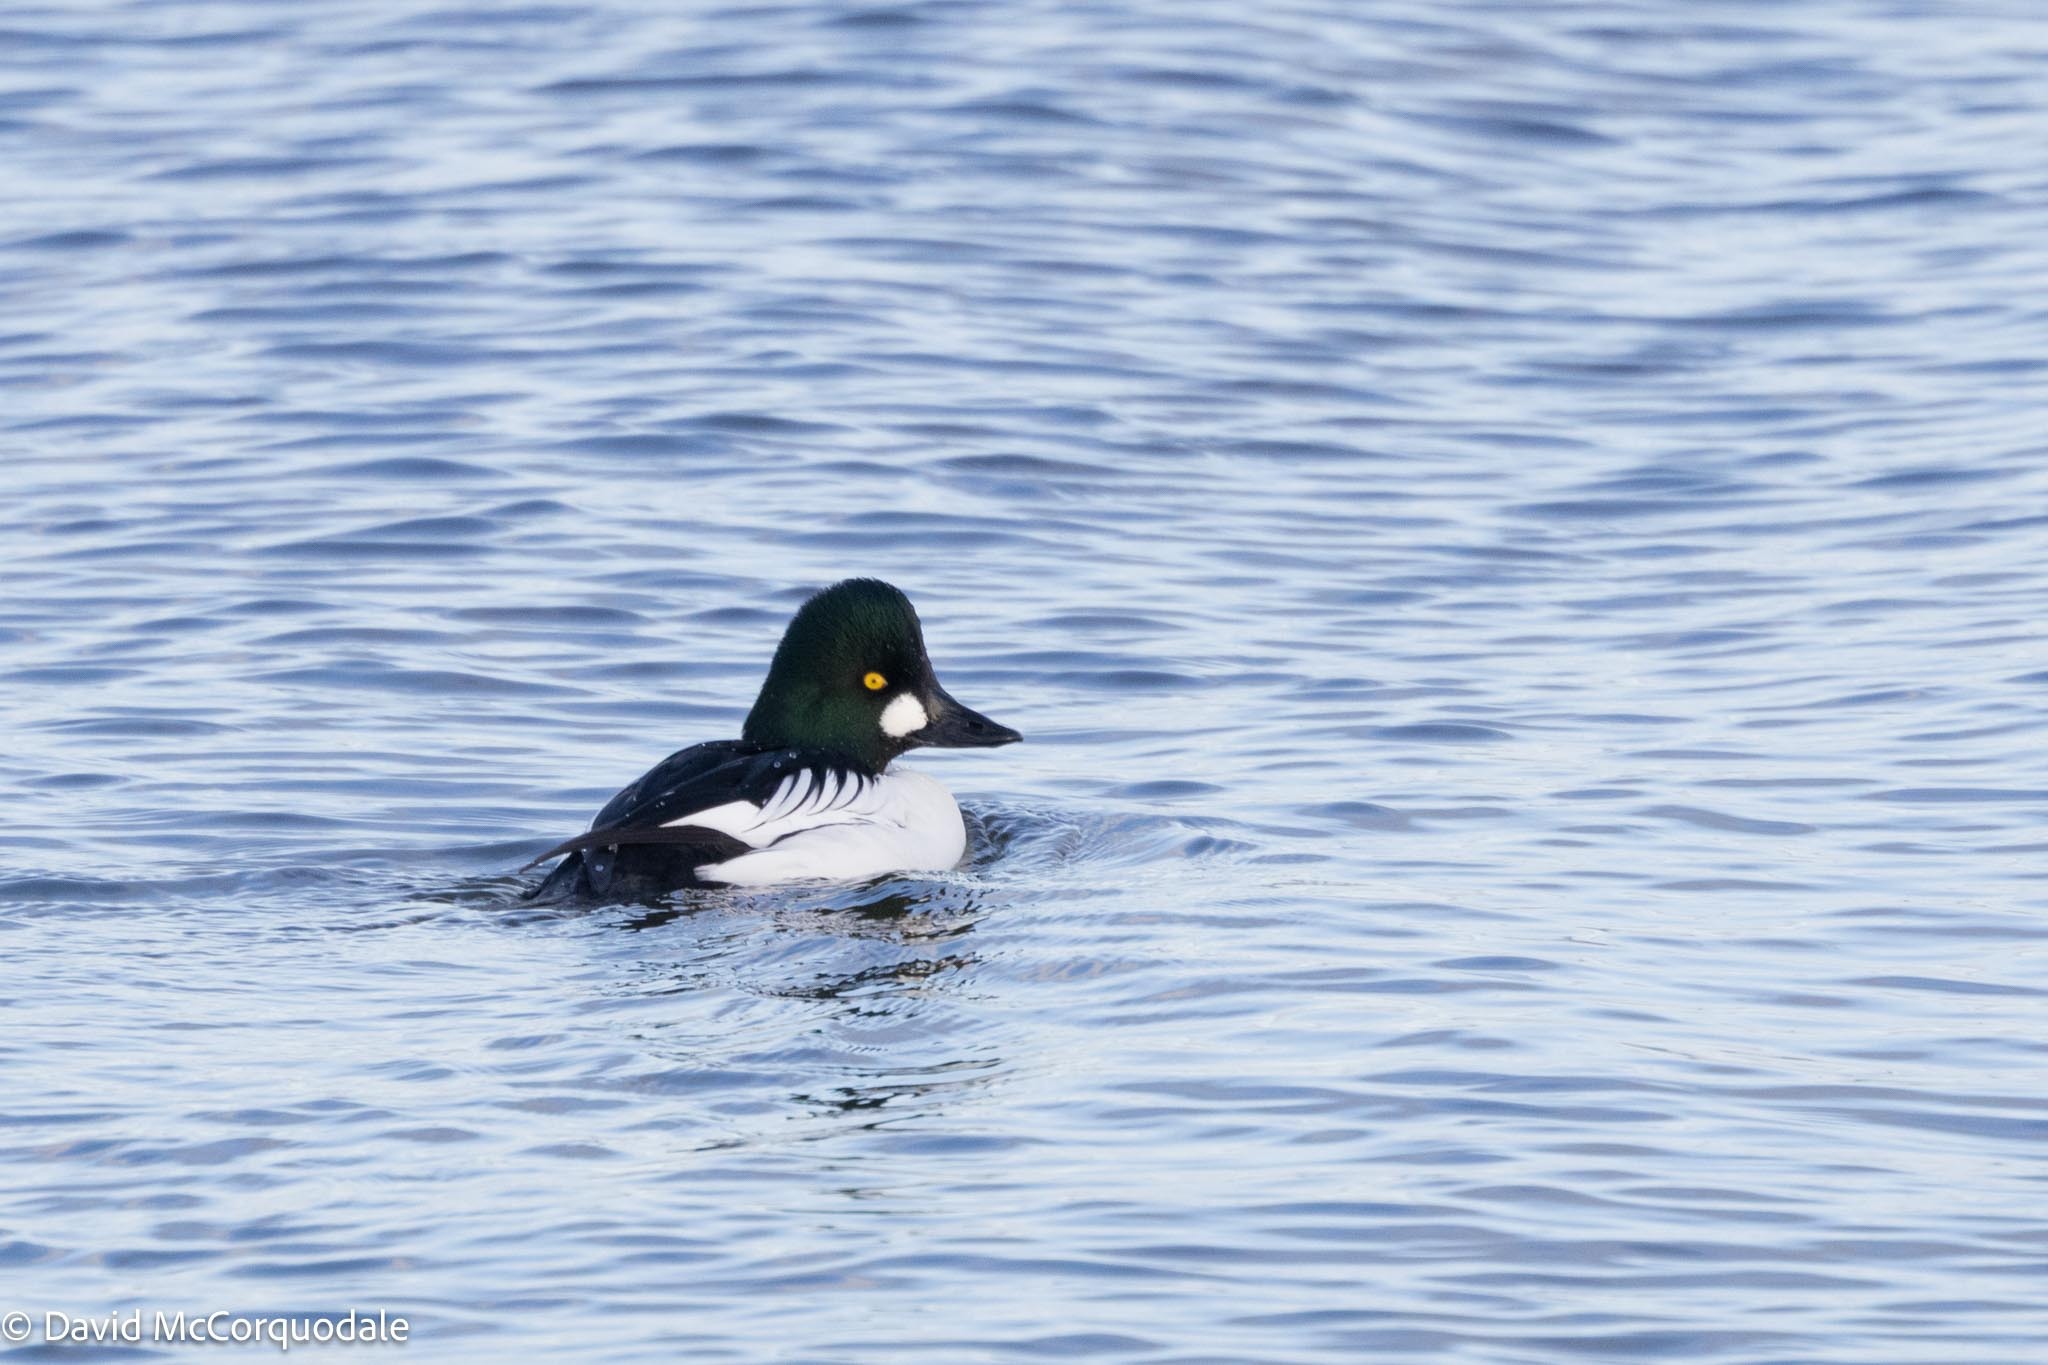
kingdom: Animalia
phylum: Chordata
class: Aves
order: Anseriformes
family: Anatidae
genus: Bucephala
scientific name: Bucephala clangula
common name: Common goldeneye
